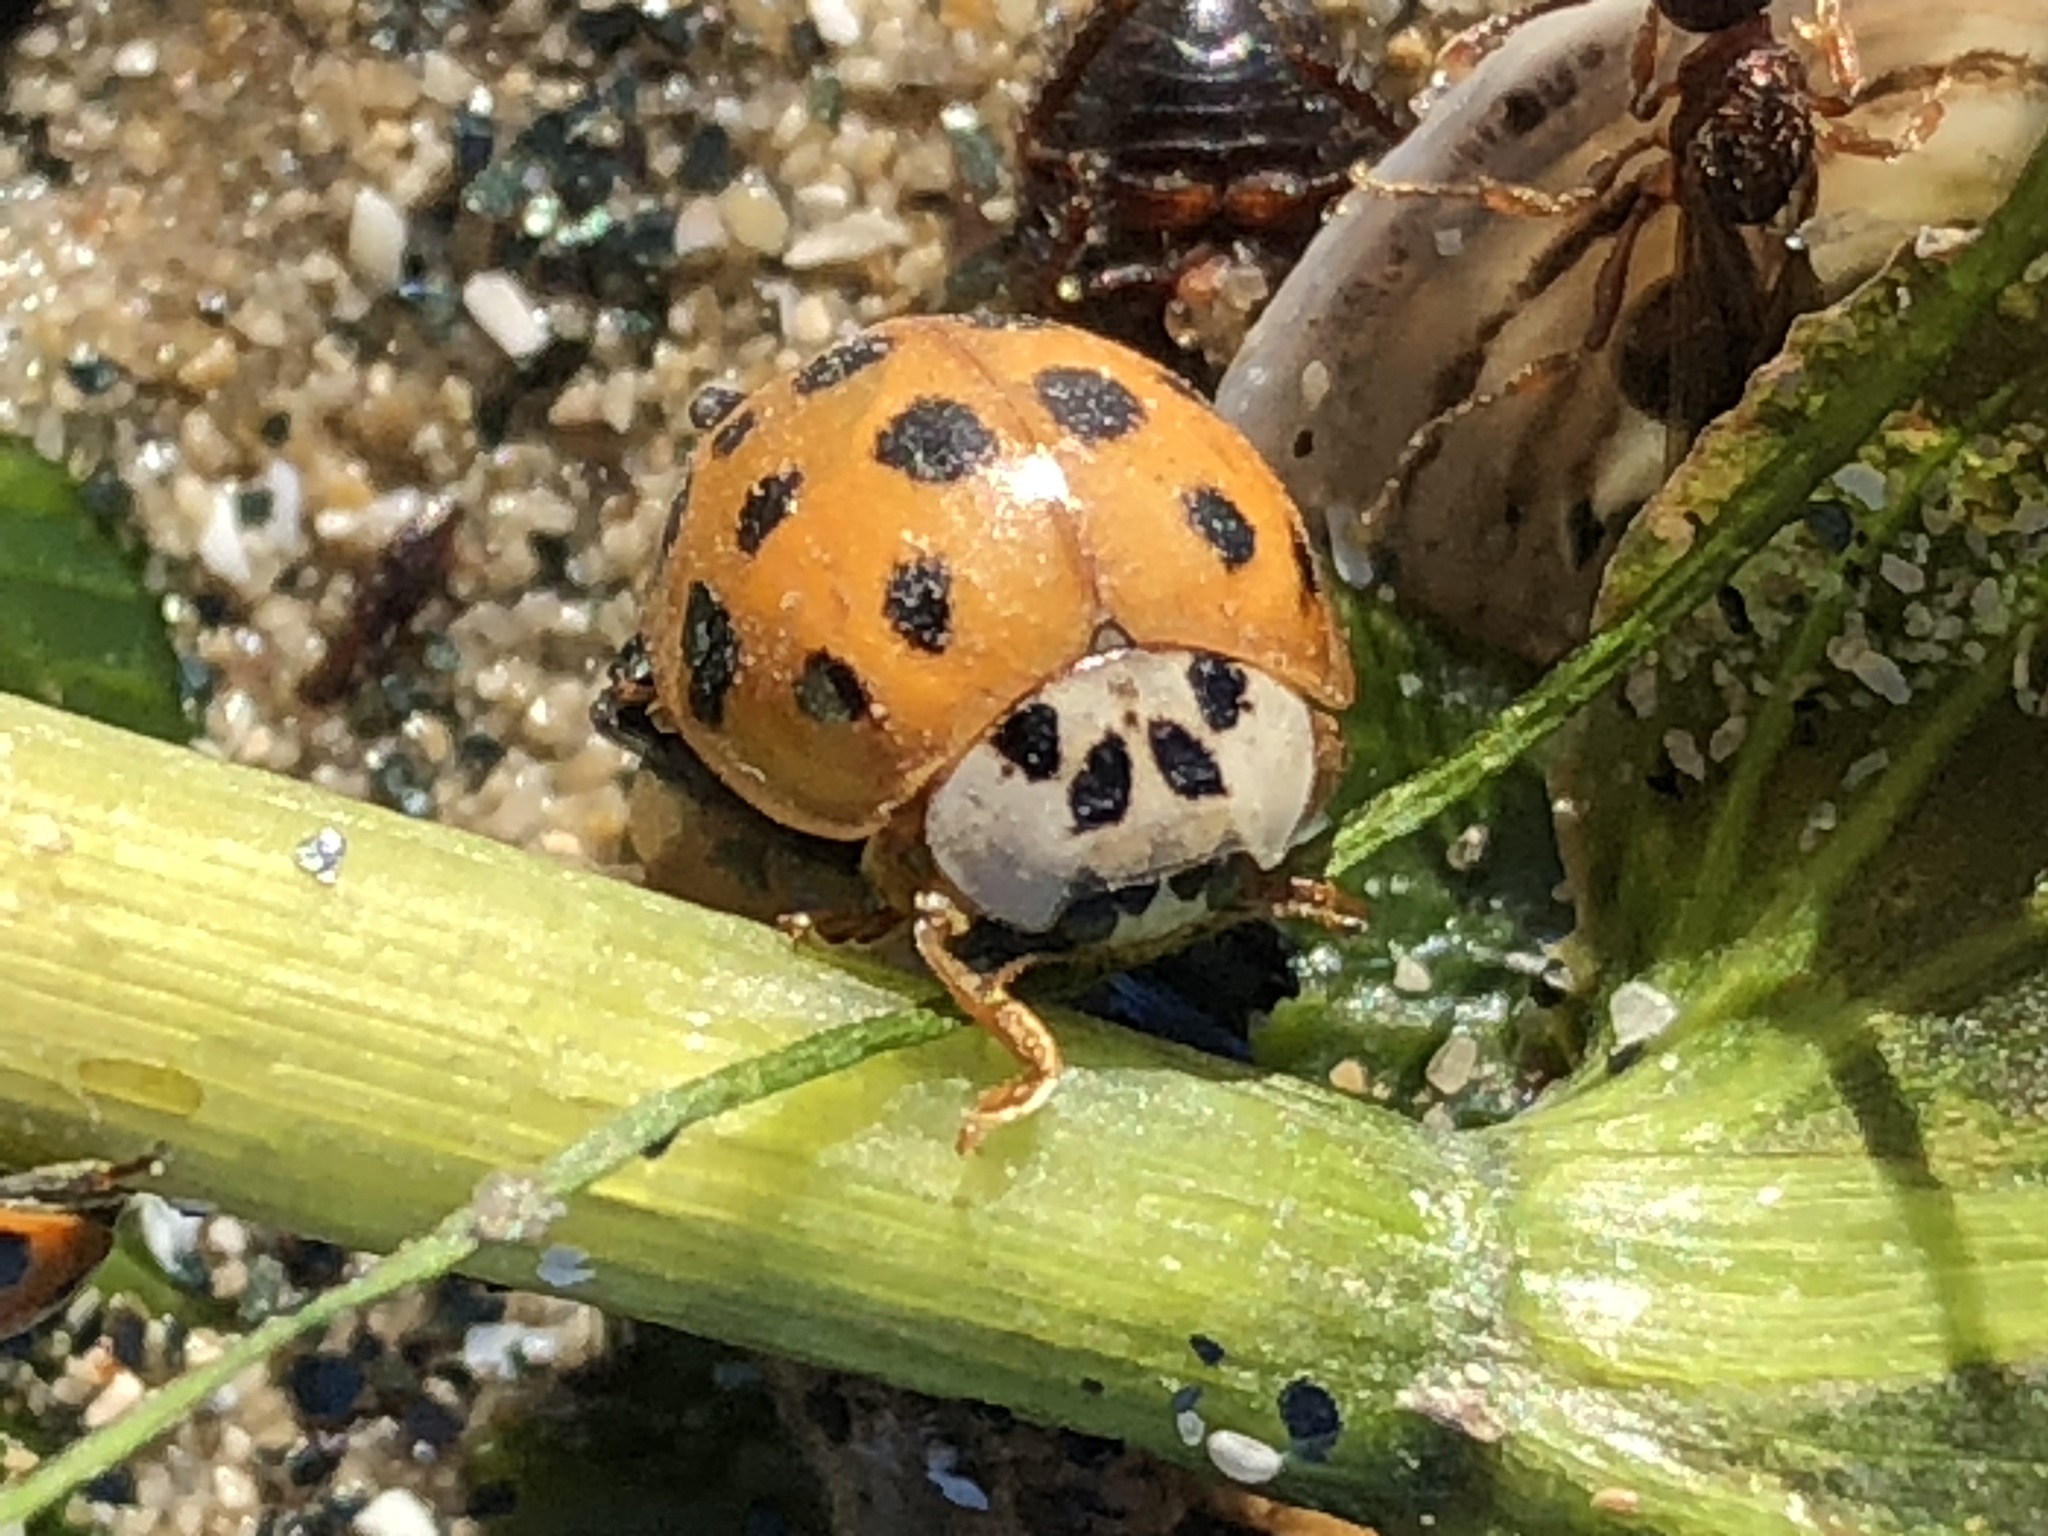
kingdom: Animalia
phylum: Arthropoda
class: Insecta
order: Coleoptera
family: Coccinellidae
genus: Harmonia
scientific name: Harmonia axyridis
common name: Harlequin ladybird
